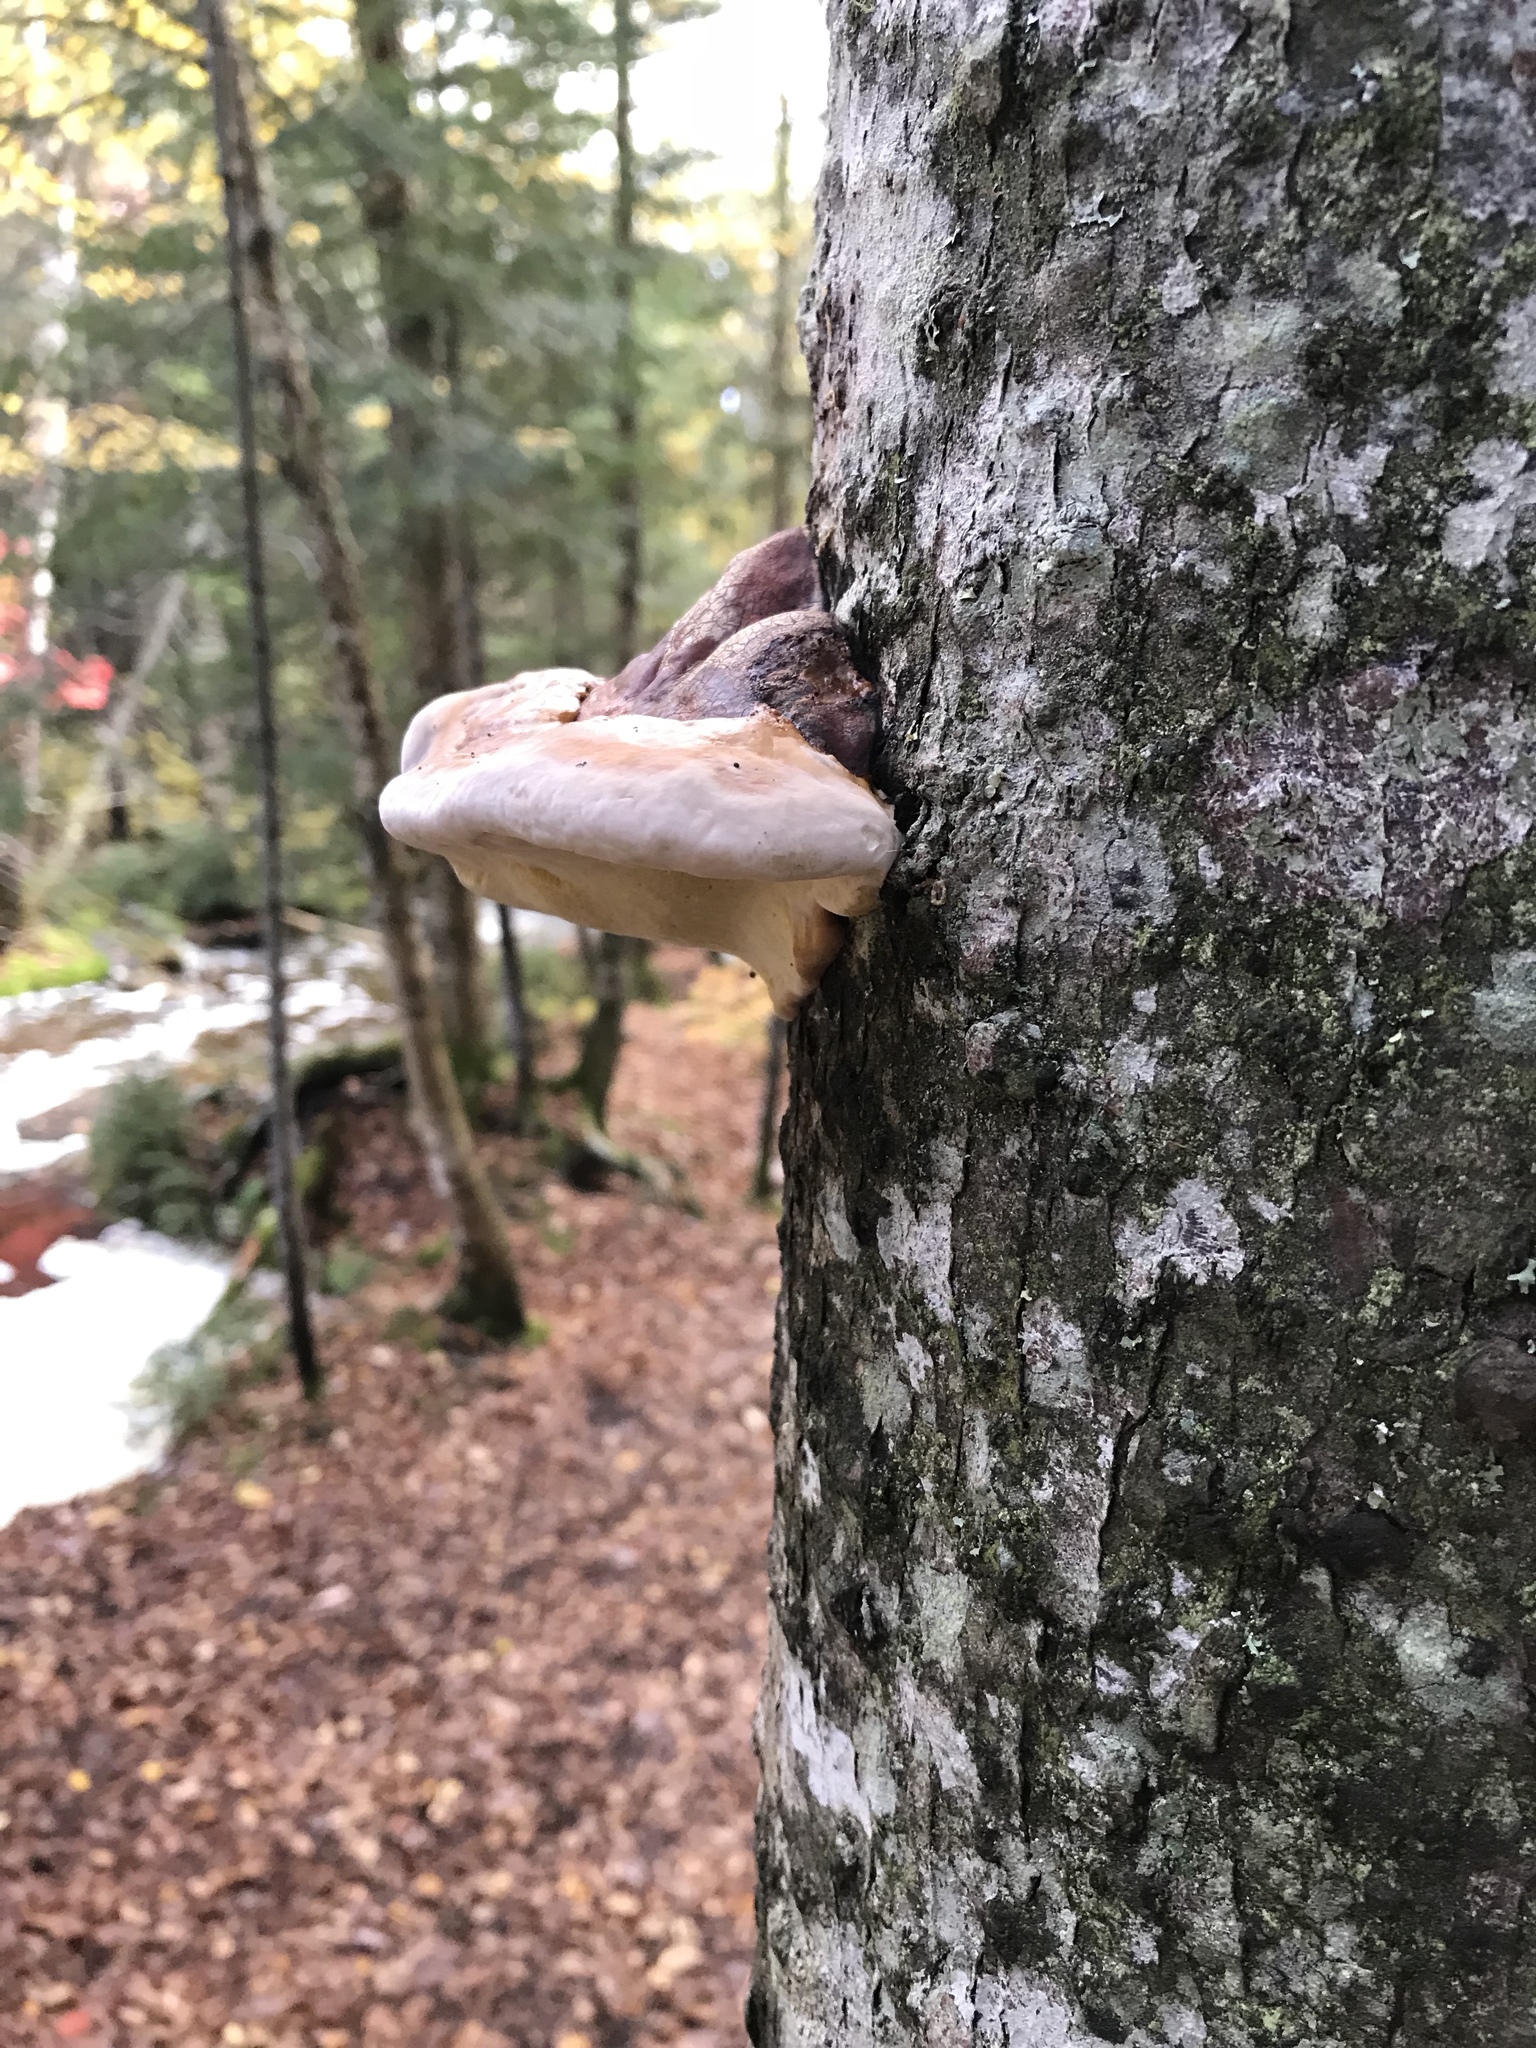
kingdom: Fungi
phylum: Basidiomycota
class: Agaricomycetes
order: Polyporales
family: Fomitopsidaceae
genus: Fomitopsis
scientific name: Fomitopsis mounceae
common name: Northern red belt
